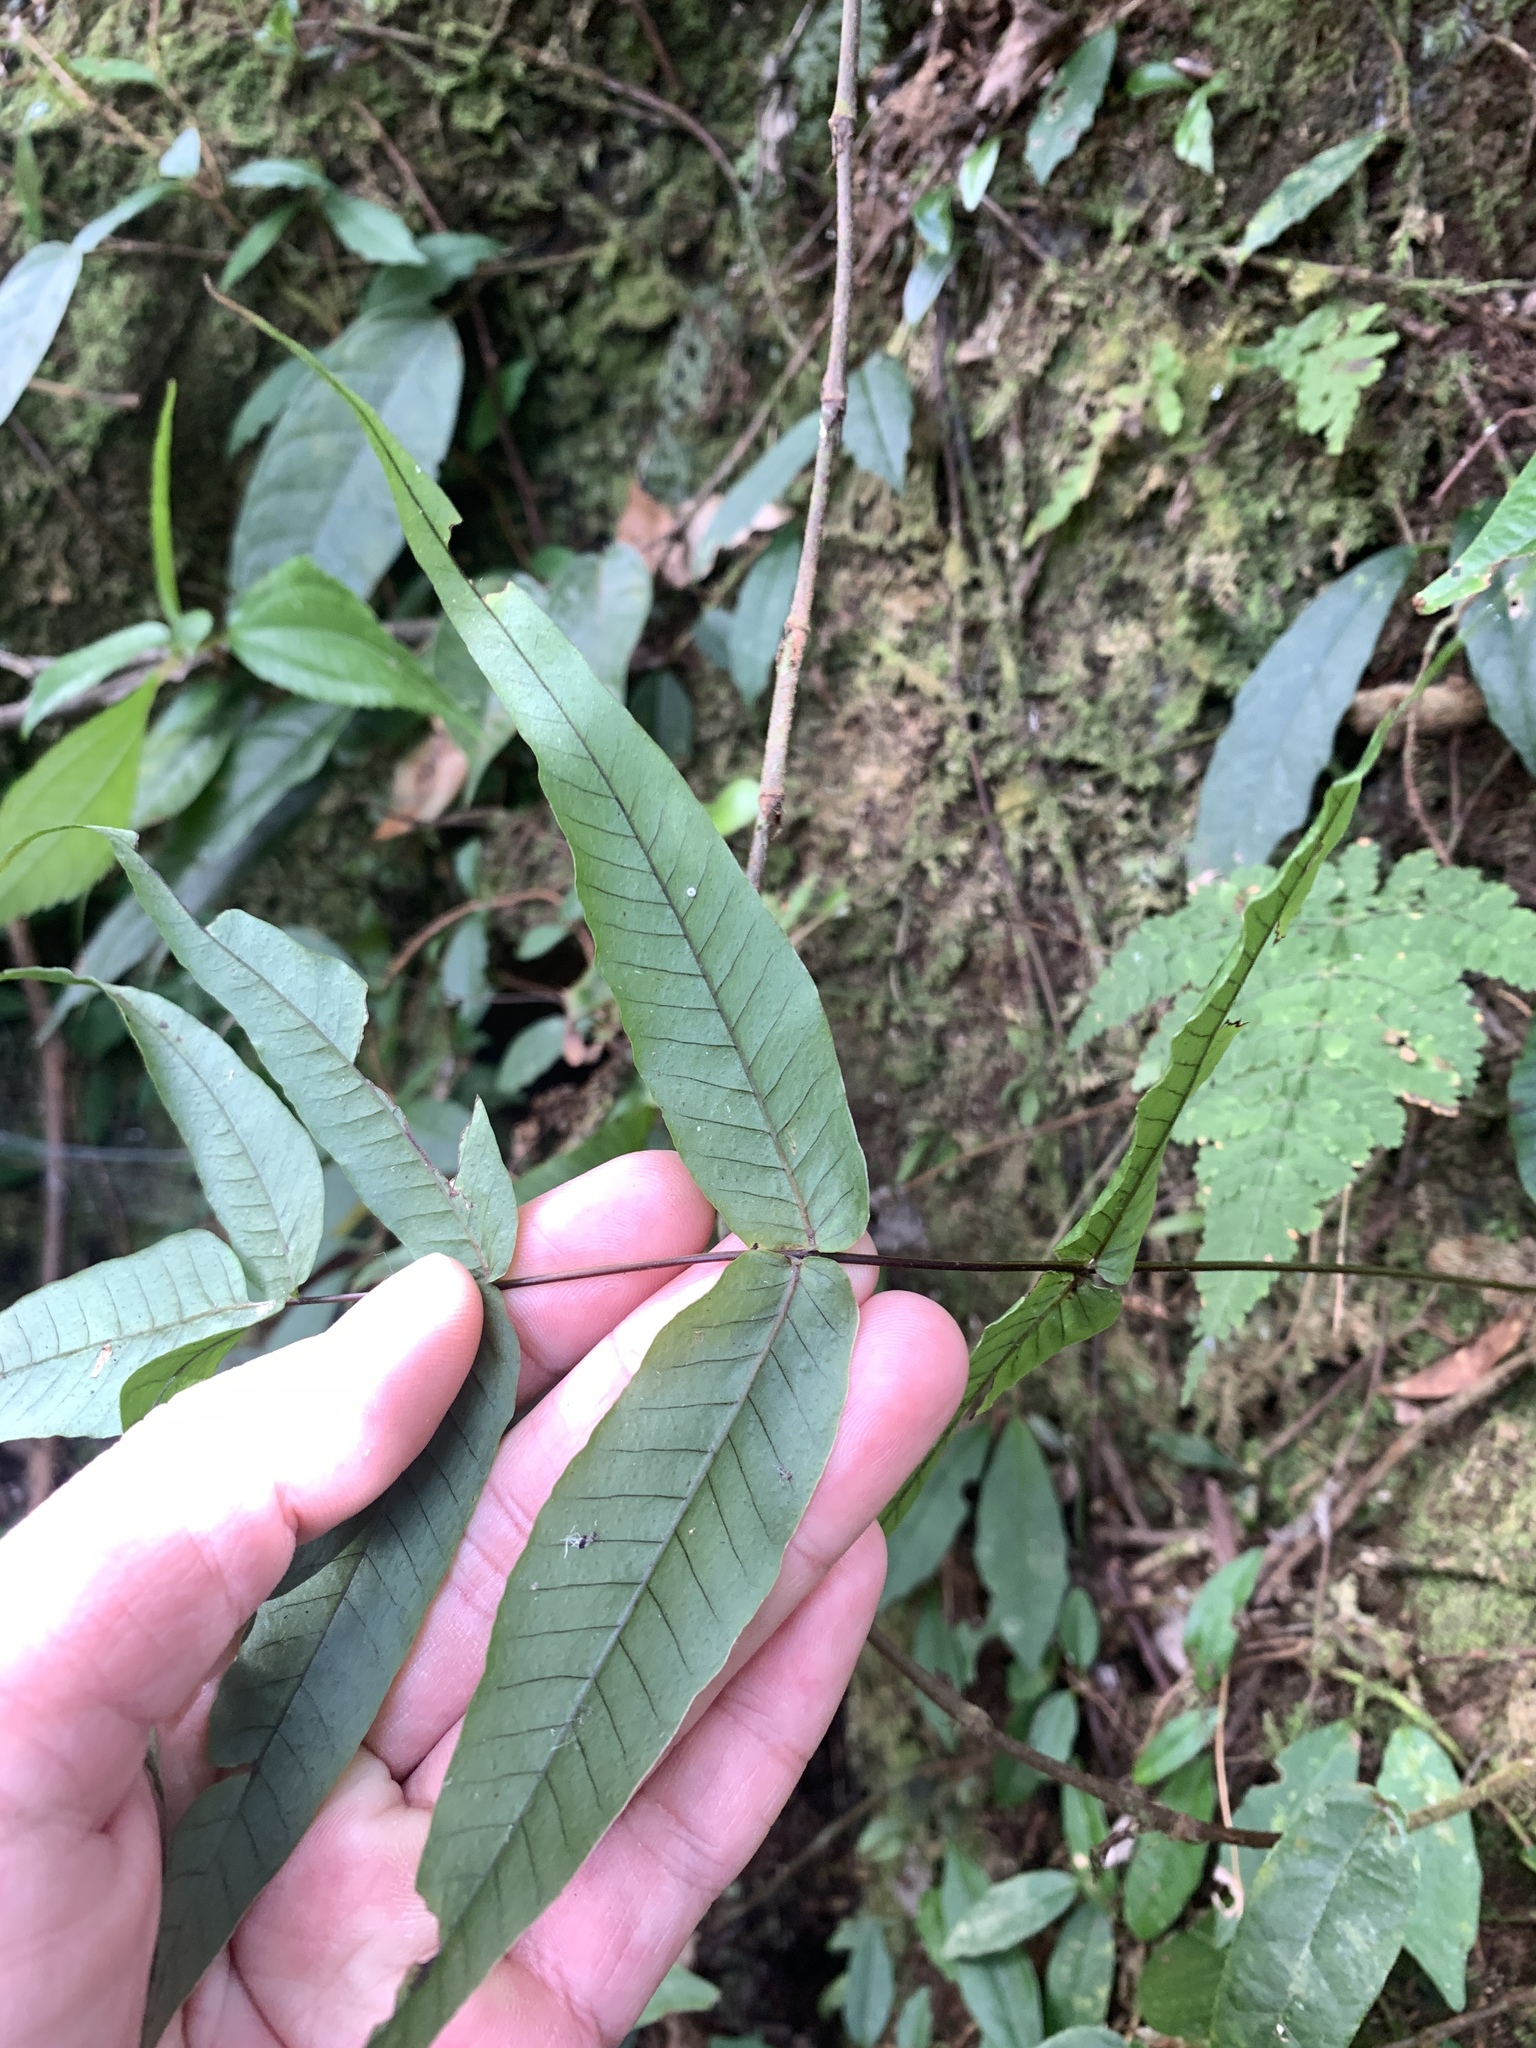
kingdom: Plantae
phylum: Tracheophyta
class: Polypodiopsida
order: Polypodiales
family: Polypodiaceae
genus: Selliguea
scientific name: Selliguea lehmannii
